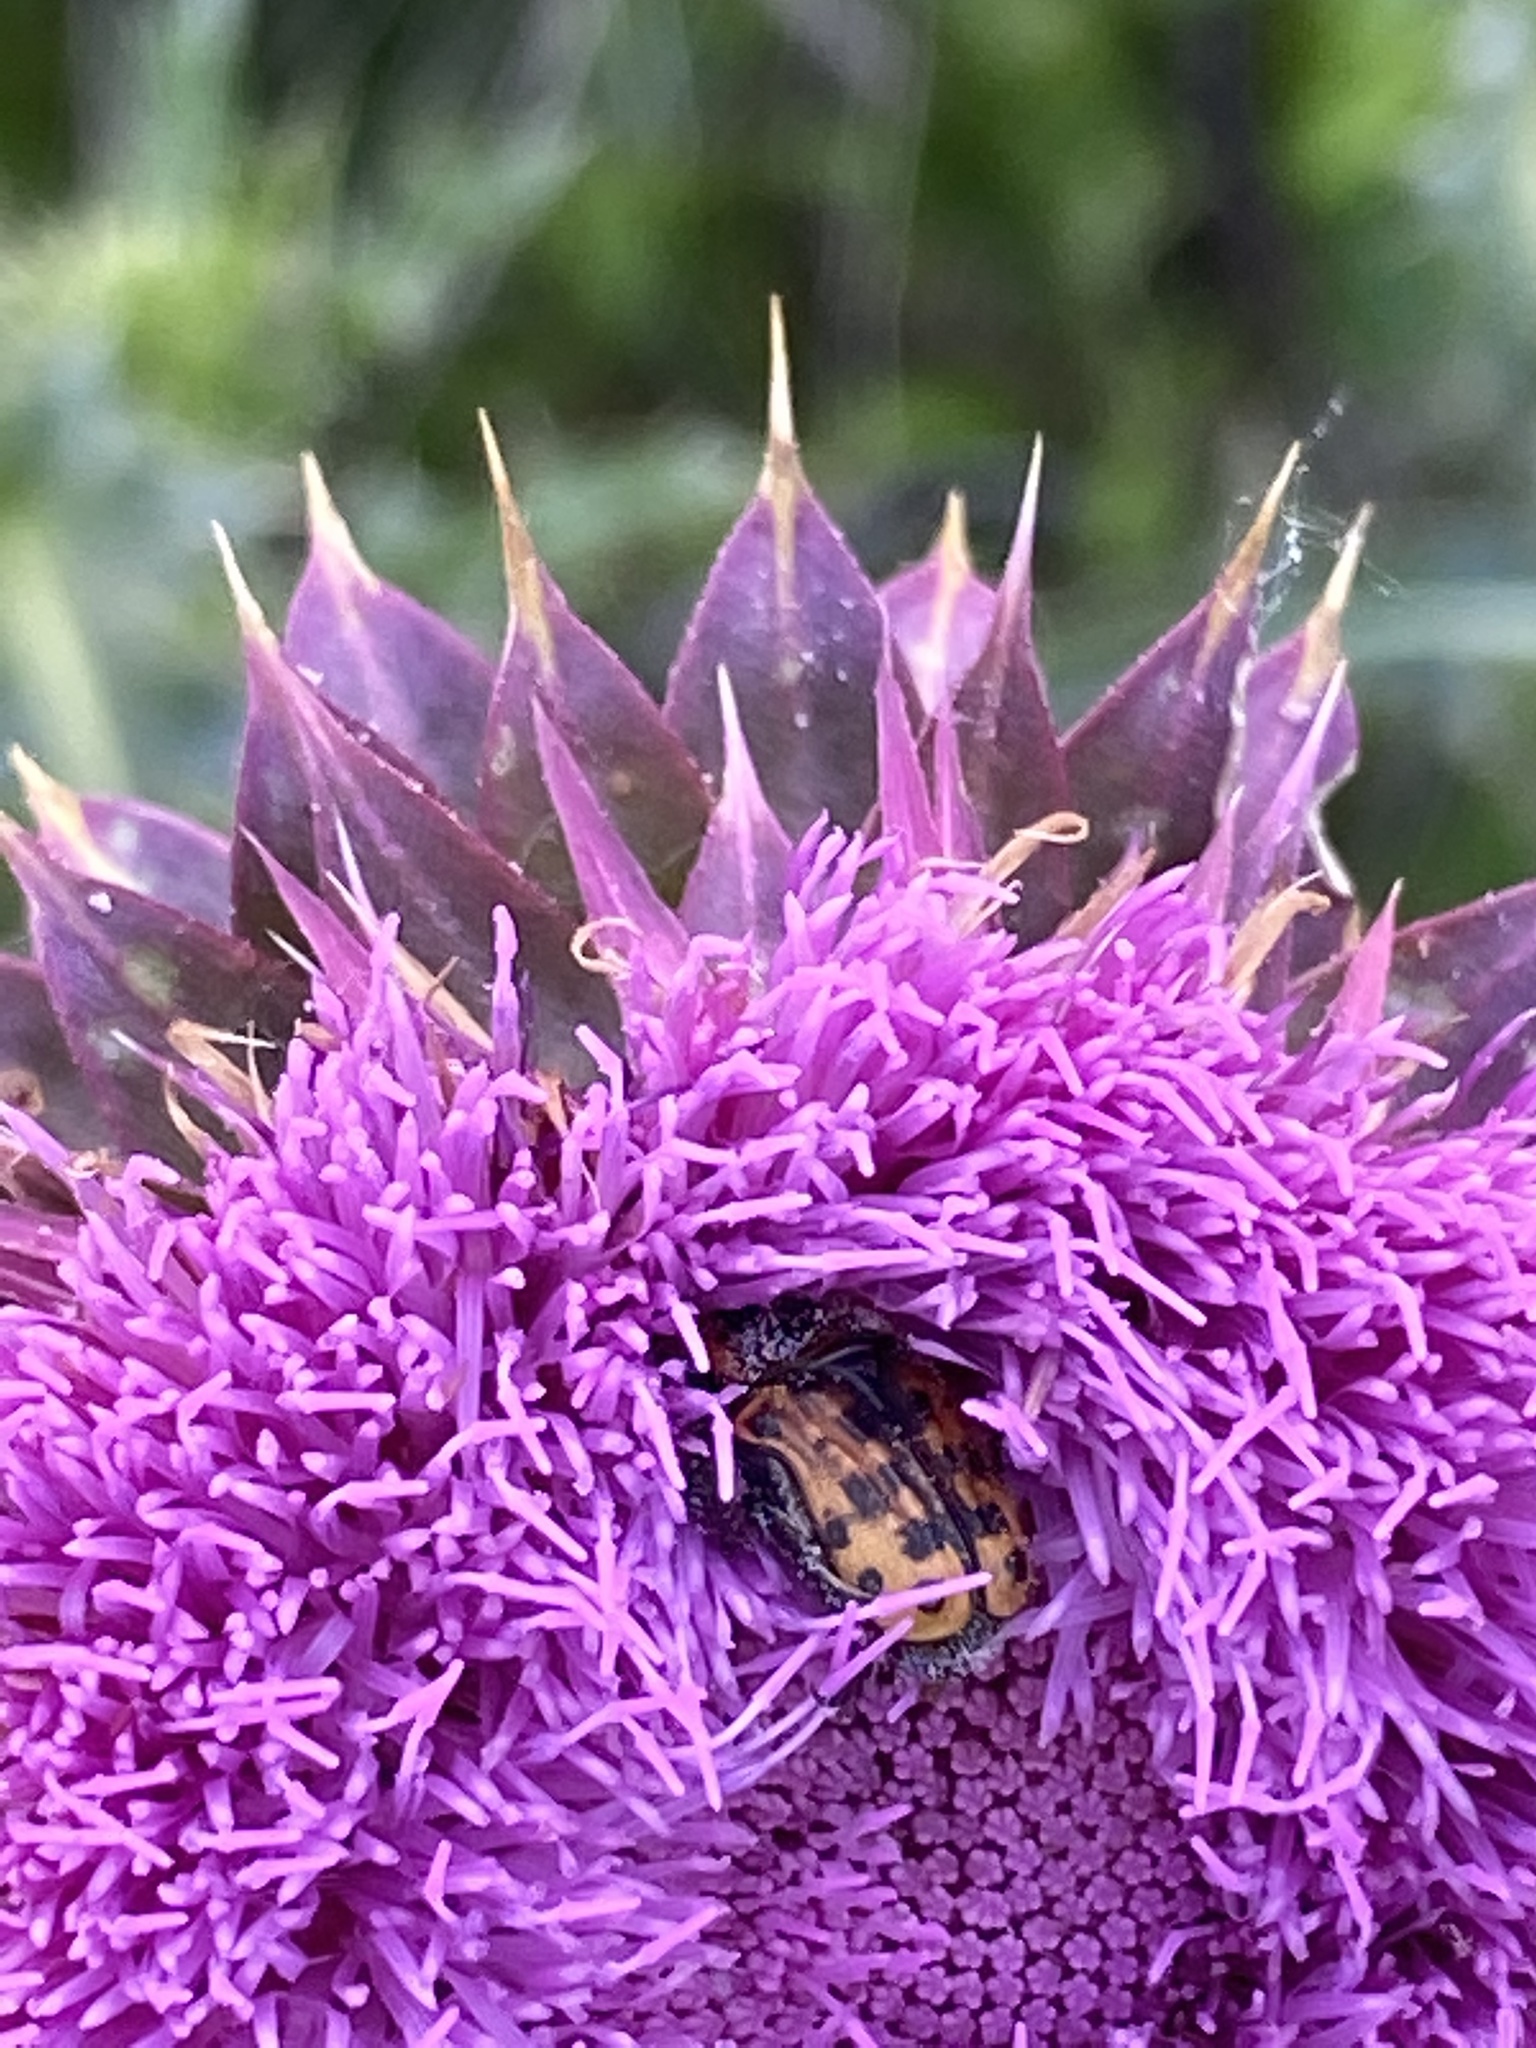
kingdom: Animalia
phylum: Arthropoda
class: Insecta
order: Coleoptera
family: Scarabaeidae
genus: Euphoria
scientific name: Euphoria kernii
